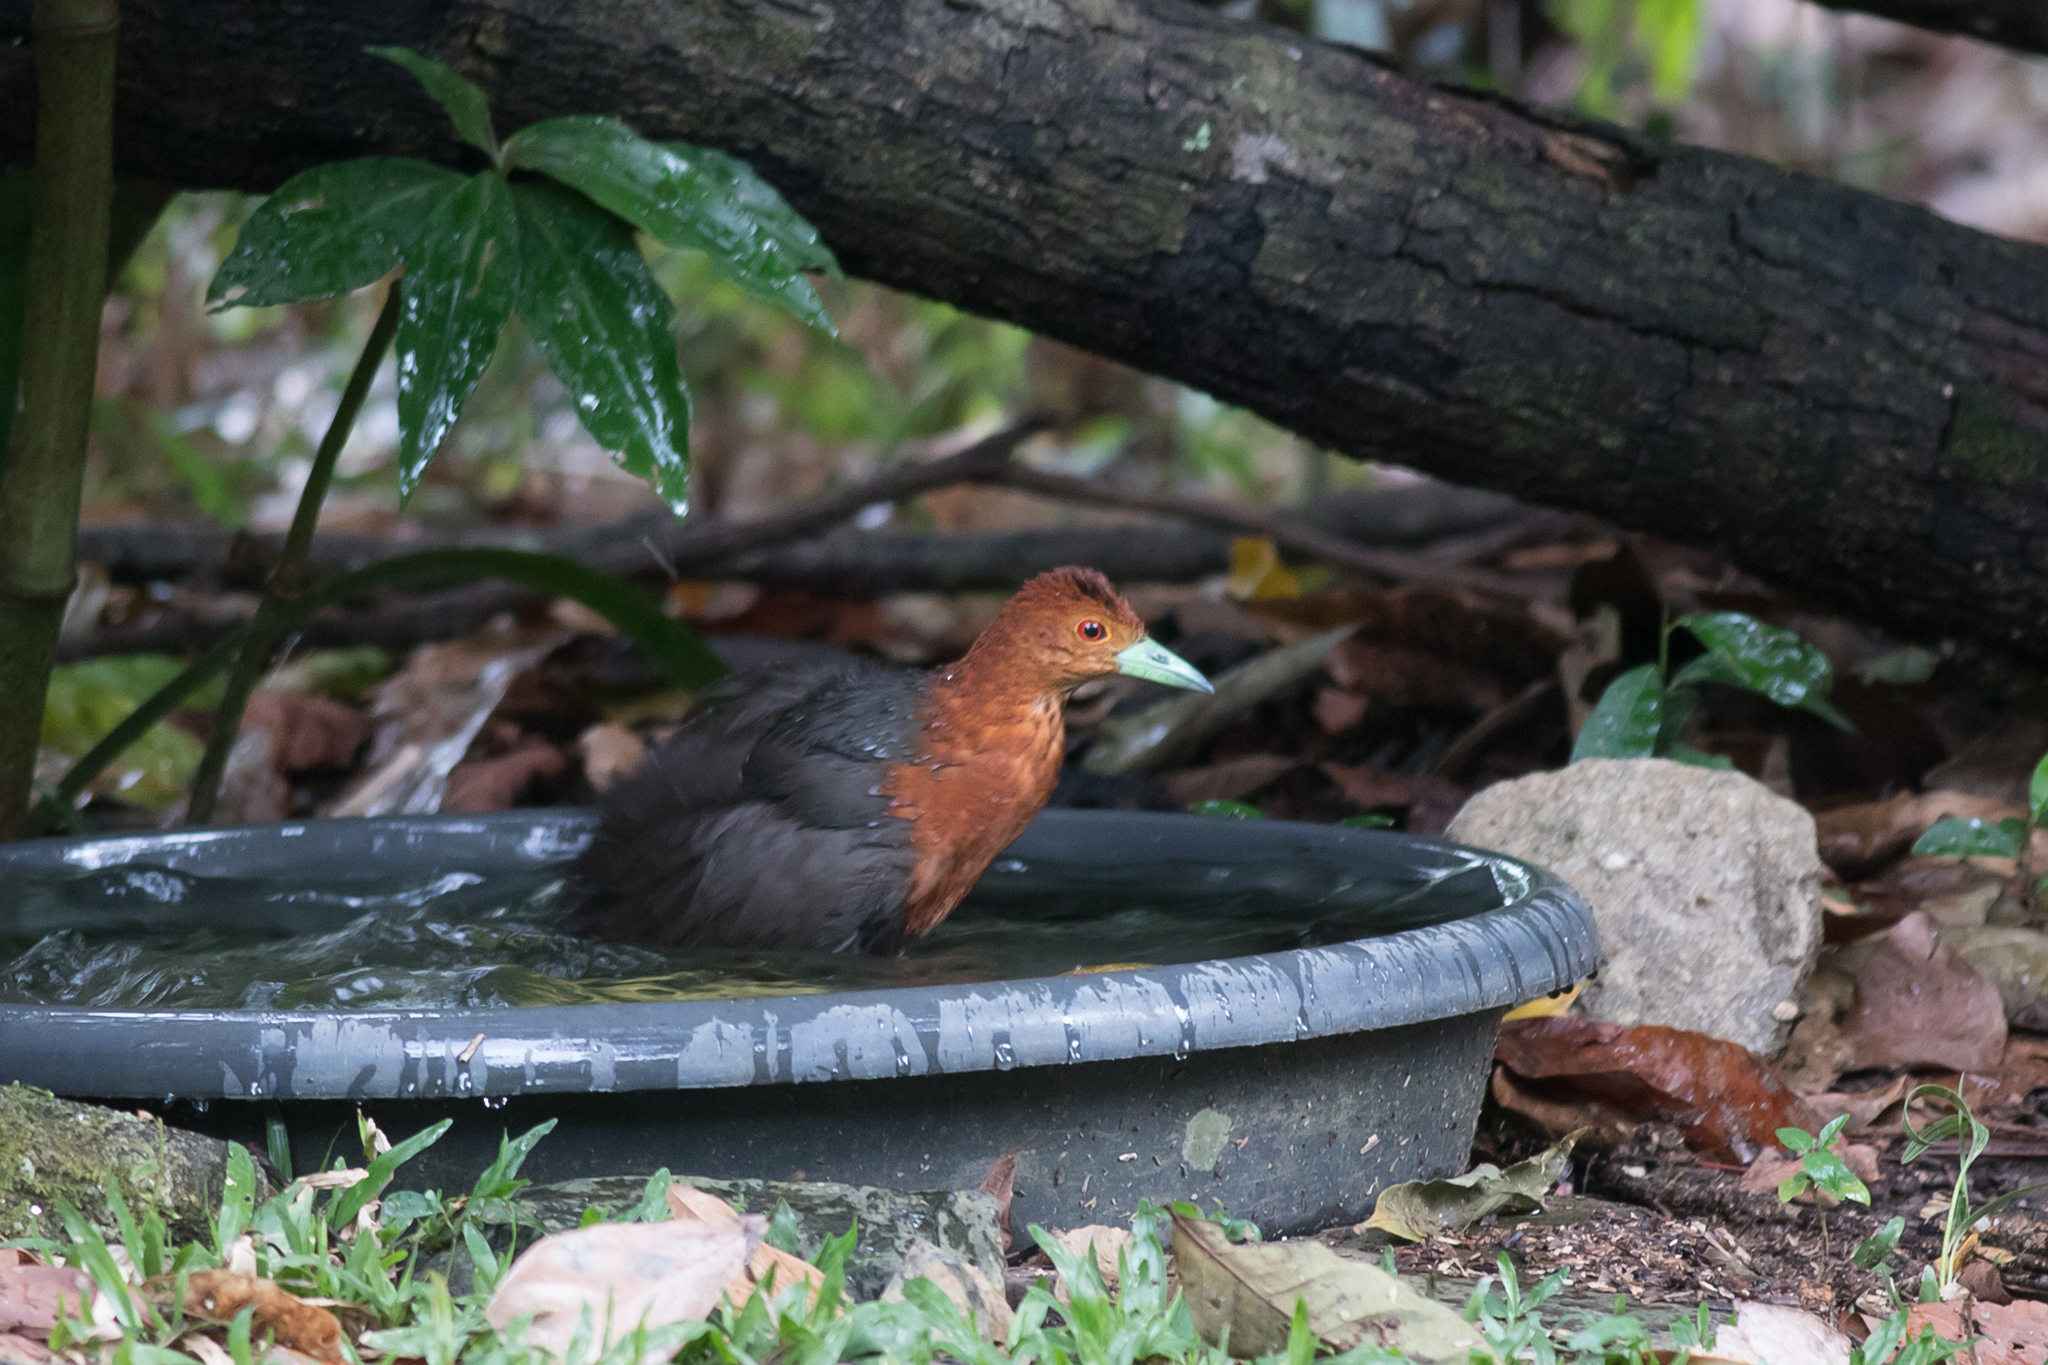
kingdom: Animalia
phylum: Chordata
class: Aves
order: Gruiformes
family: Rallidae
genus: Rallina
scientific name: Rallina tricolor
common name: Red-necked crake
